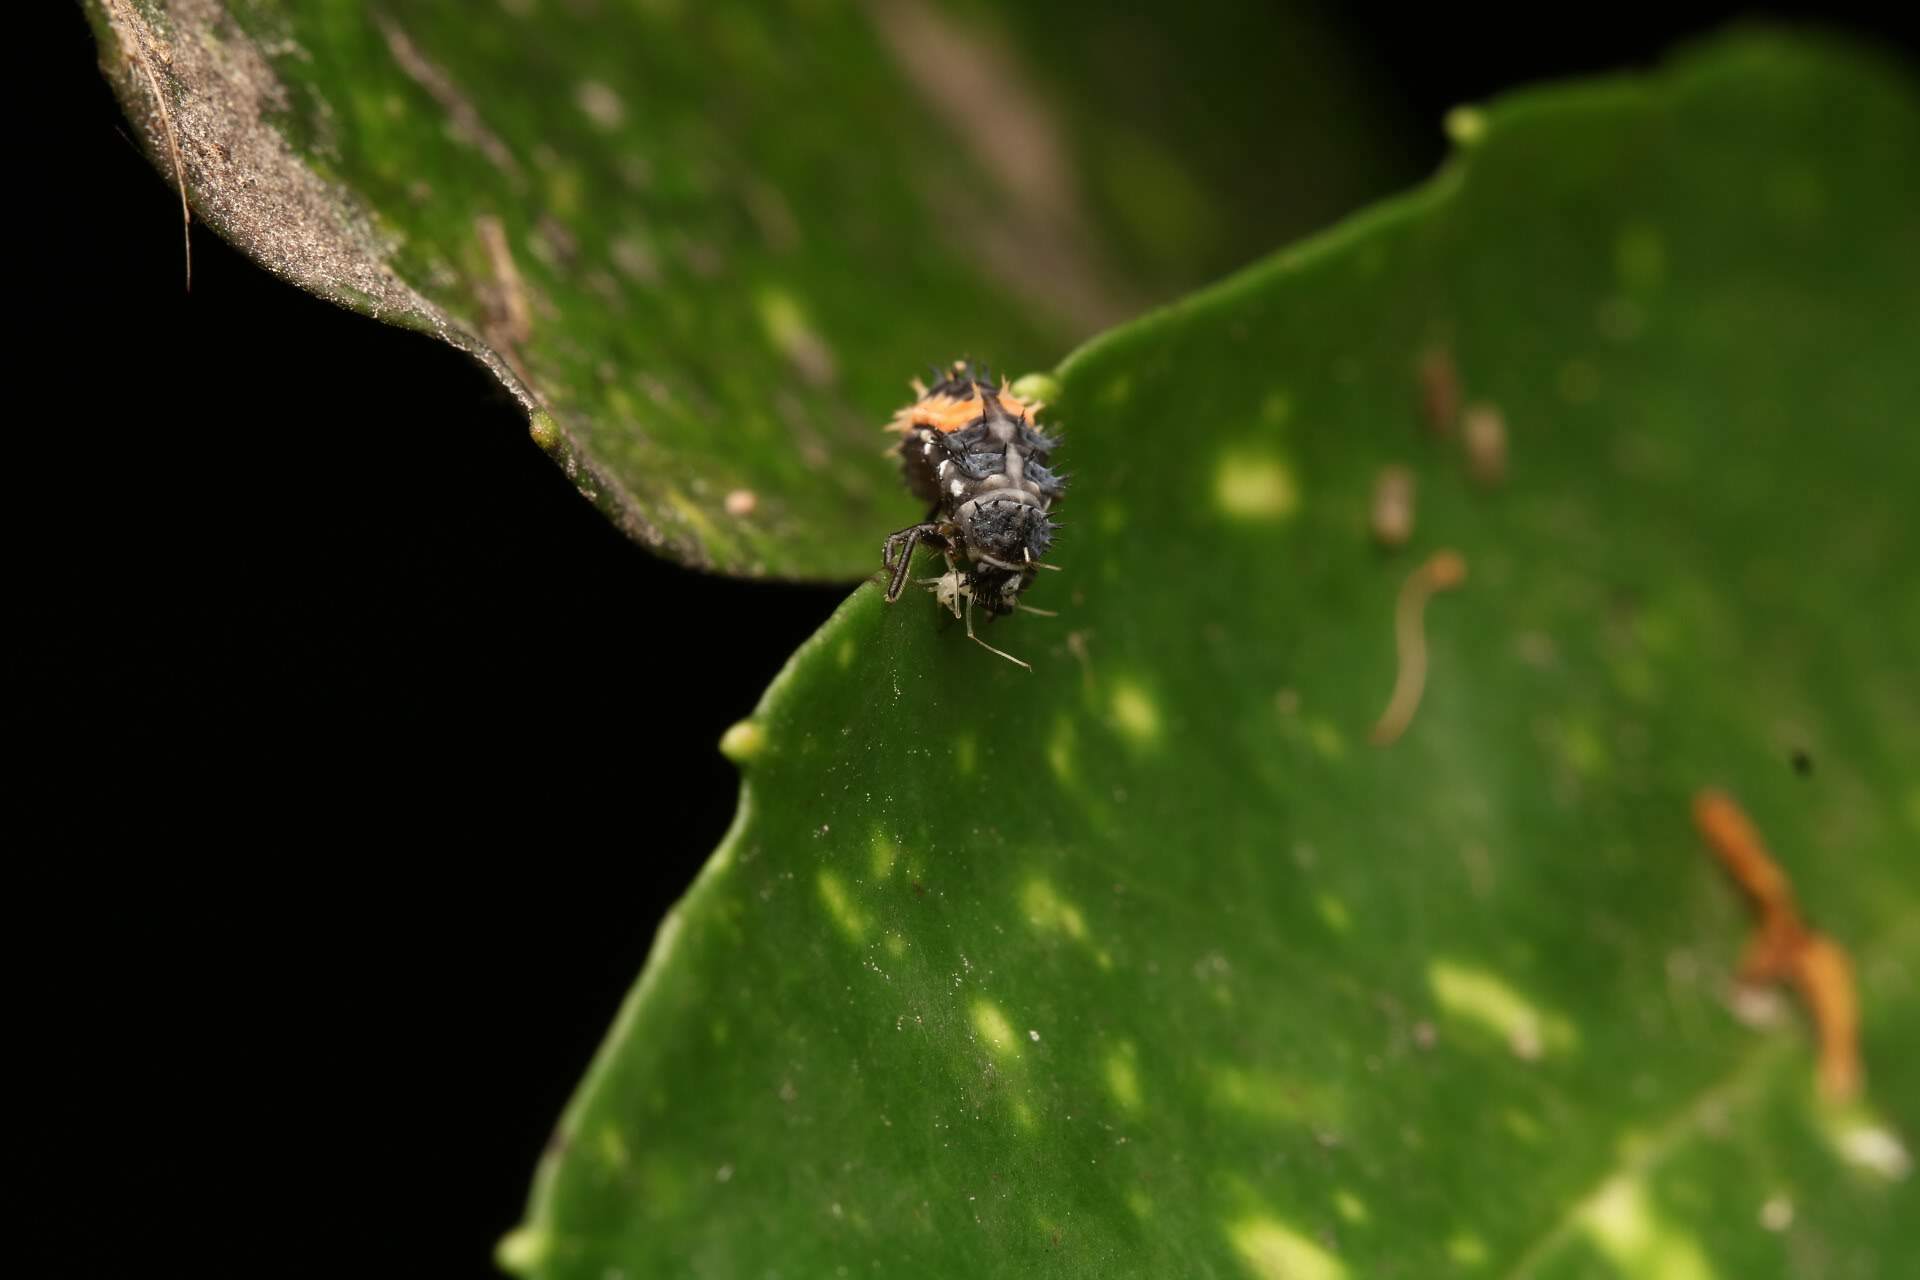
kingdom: Animalia
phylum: Arthropoda
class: Insecta
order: Coleoptera
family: Coccinellidae
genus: Harmonia
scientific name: Harmonia axyridis
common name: Harlequin ladybird
